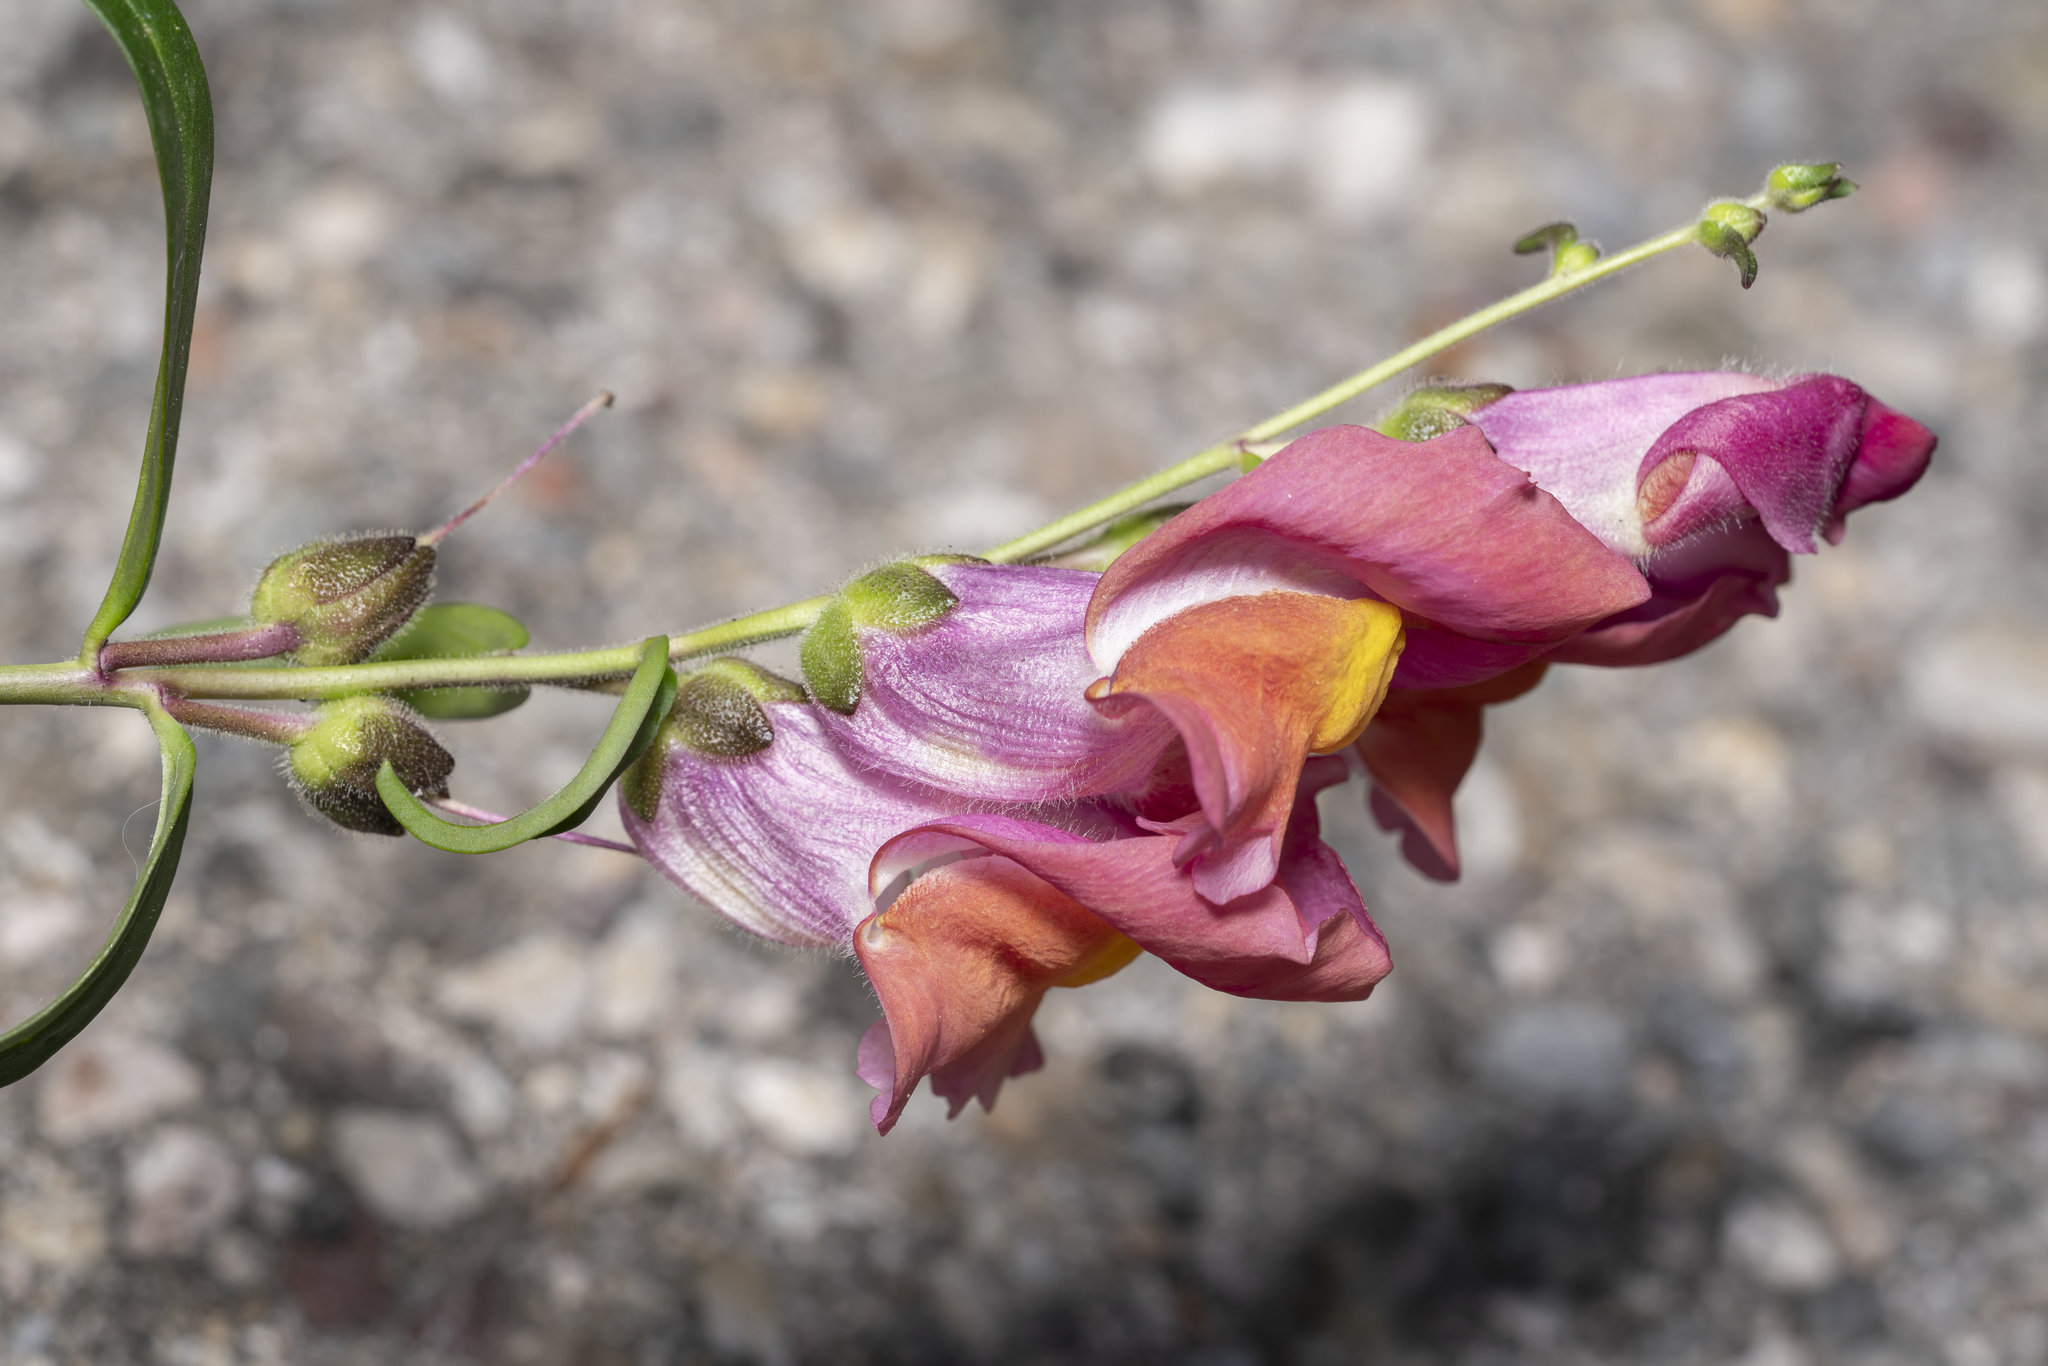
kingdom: Plantae
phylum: Tracheophyta
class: Magnoliopsida
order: Lamiales
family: Plantaginaceae
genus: Antirrhinum
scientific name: Antirrhinum majus
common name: Snapdragon
